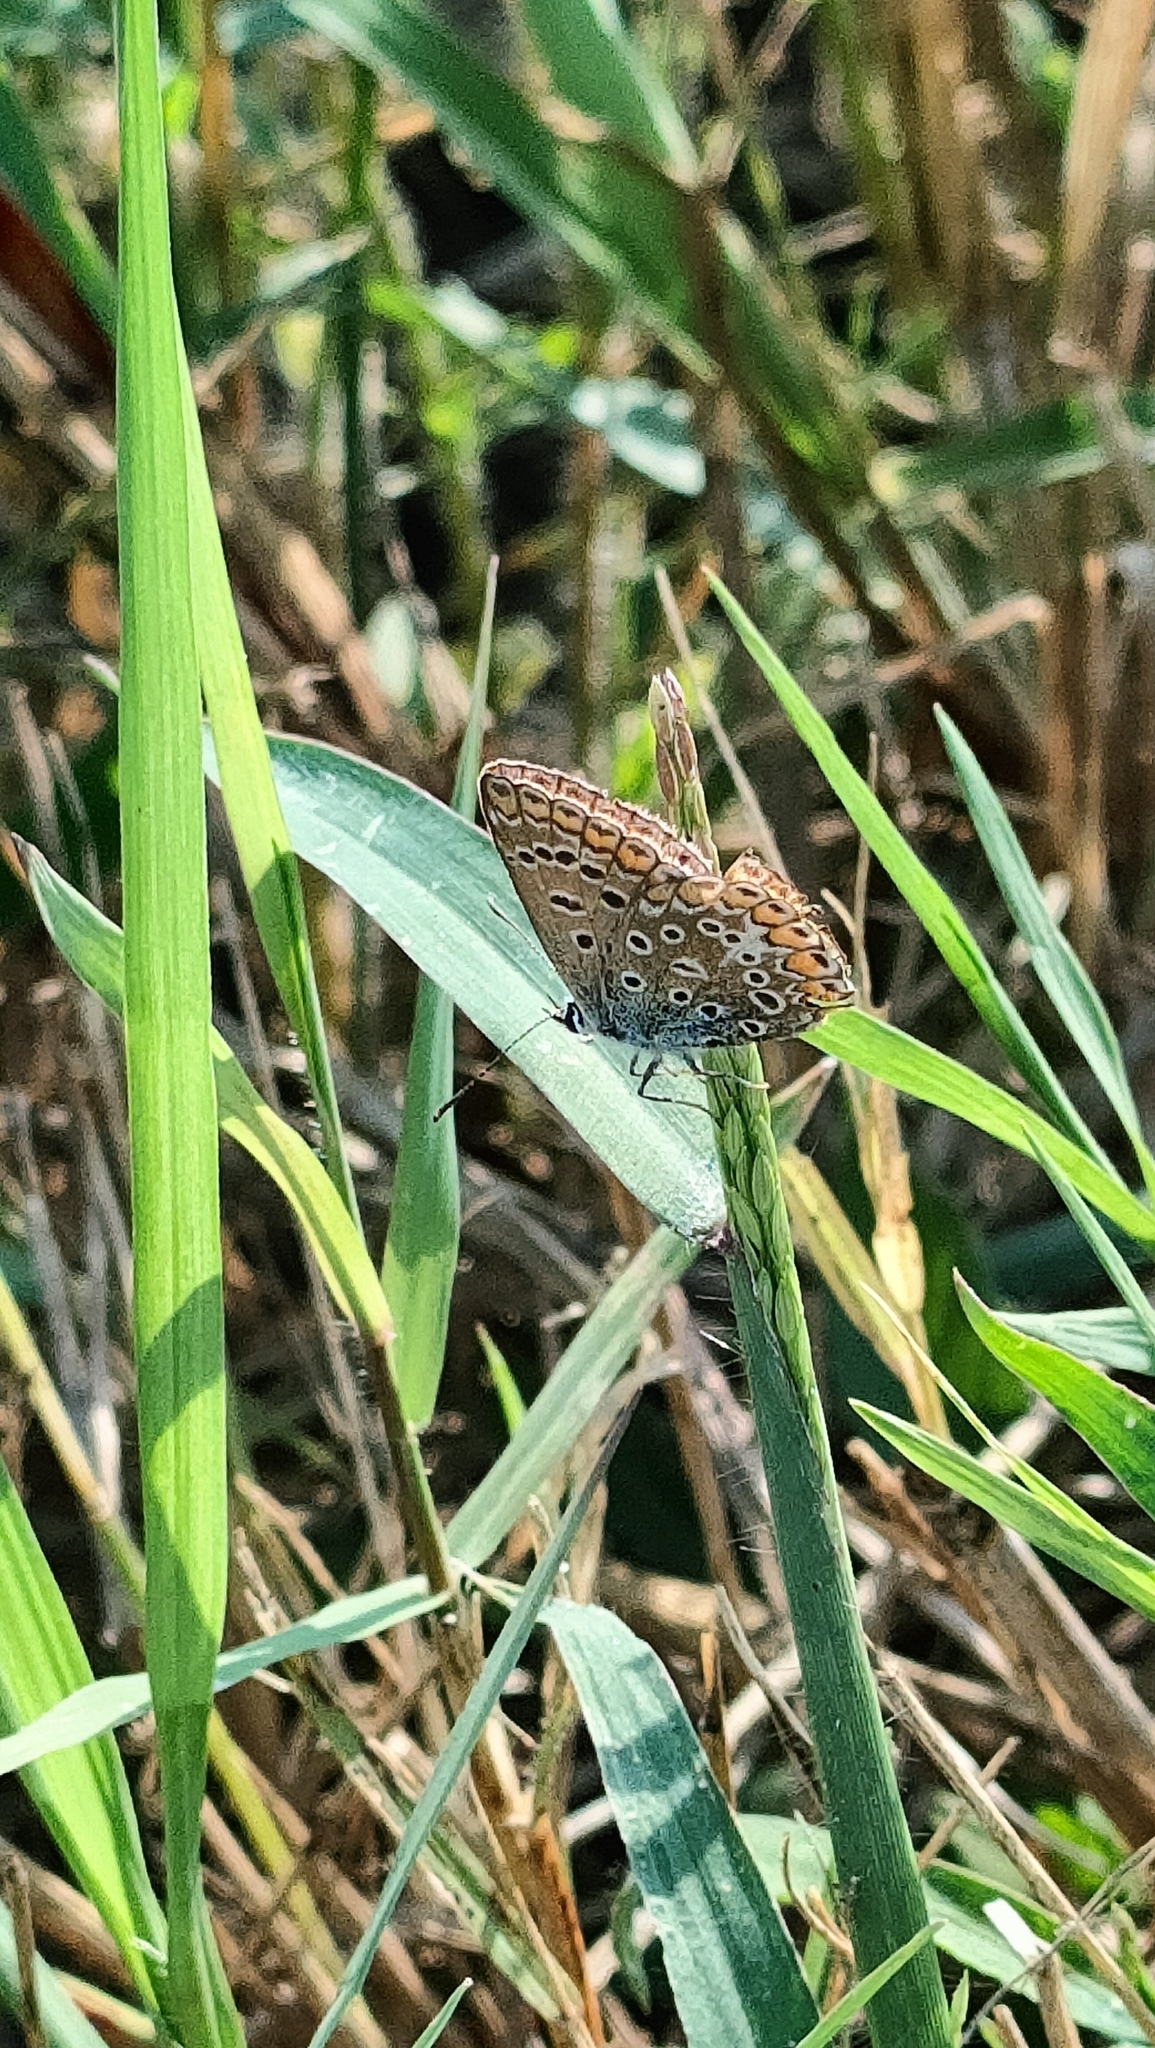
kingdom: Animalia
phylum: Arthropoda
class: Insecta
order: Lepidoptera
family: Lycaenidae
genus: Polyommatus
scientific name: Polyommatus icarus
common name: Common blue
